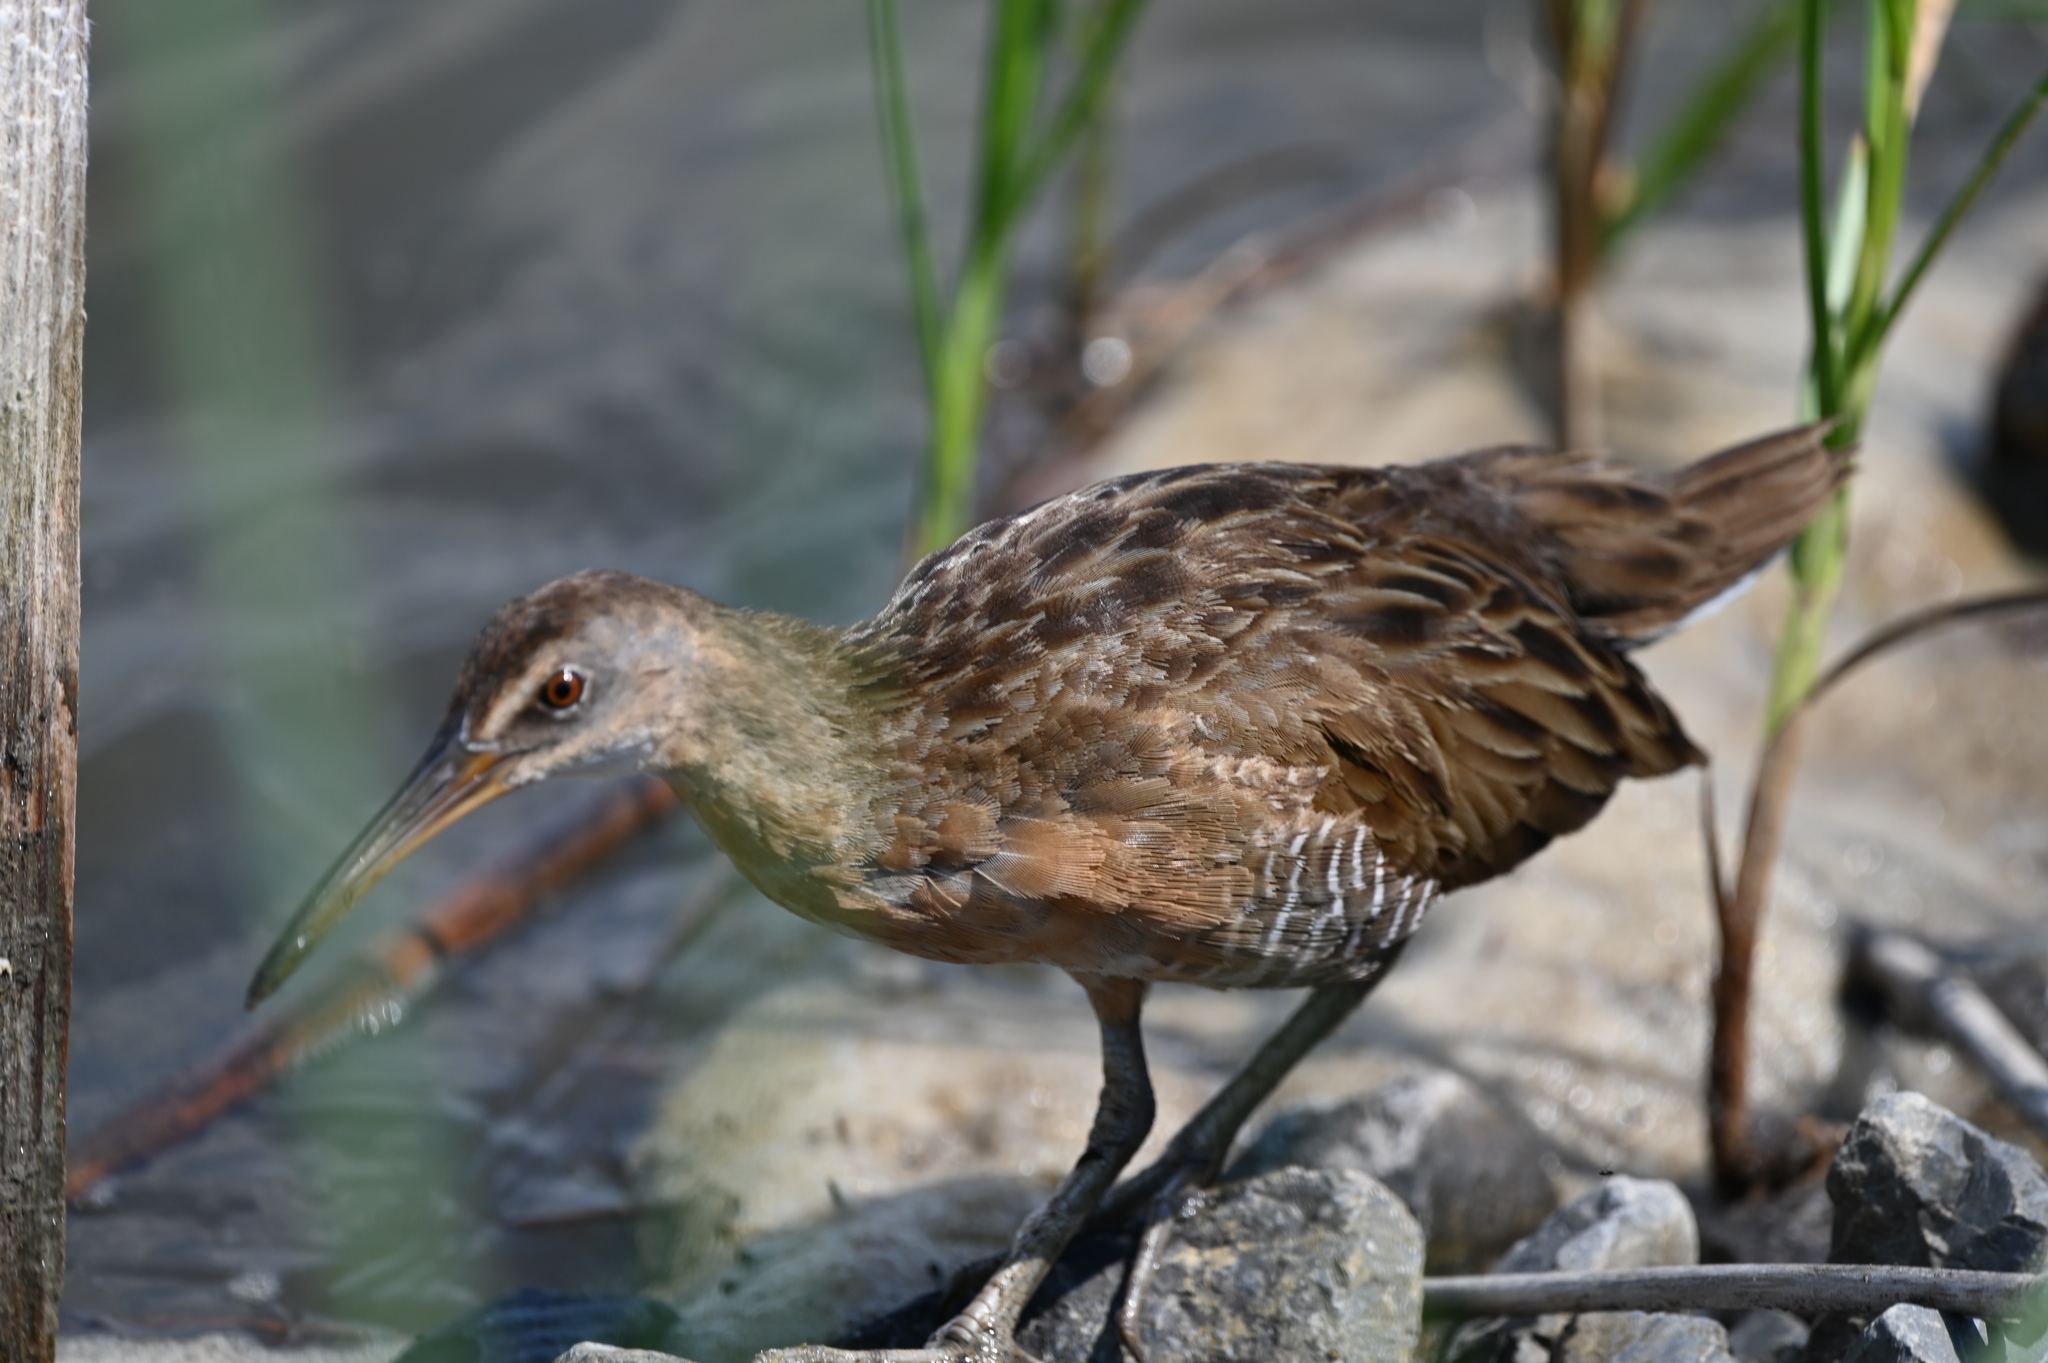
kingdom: Animalia
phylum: Chordata
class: Aves
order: Gruiformes
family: Rallidae
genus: Rallus
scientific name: Rallus crepitans
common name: Clapper rail
